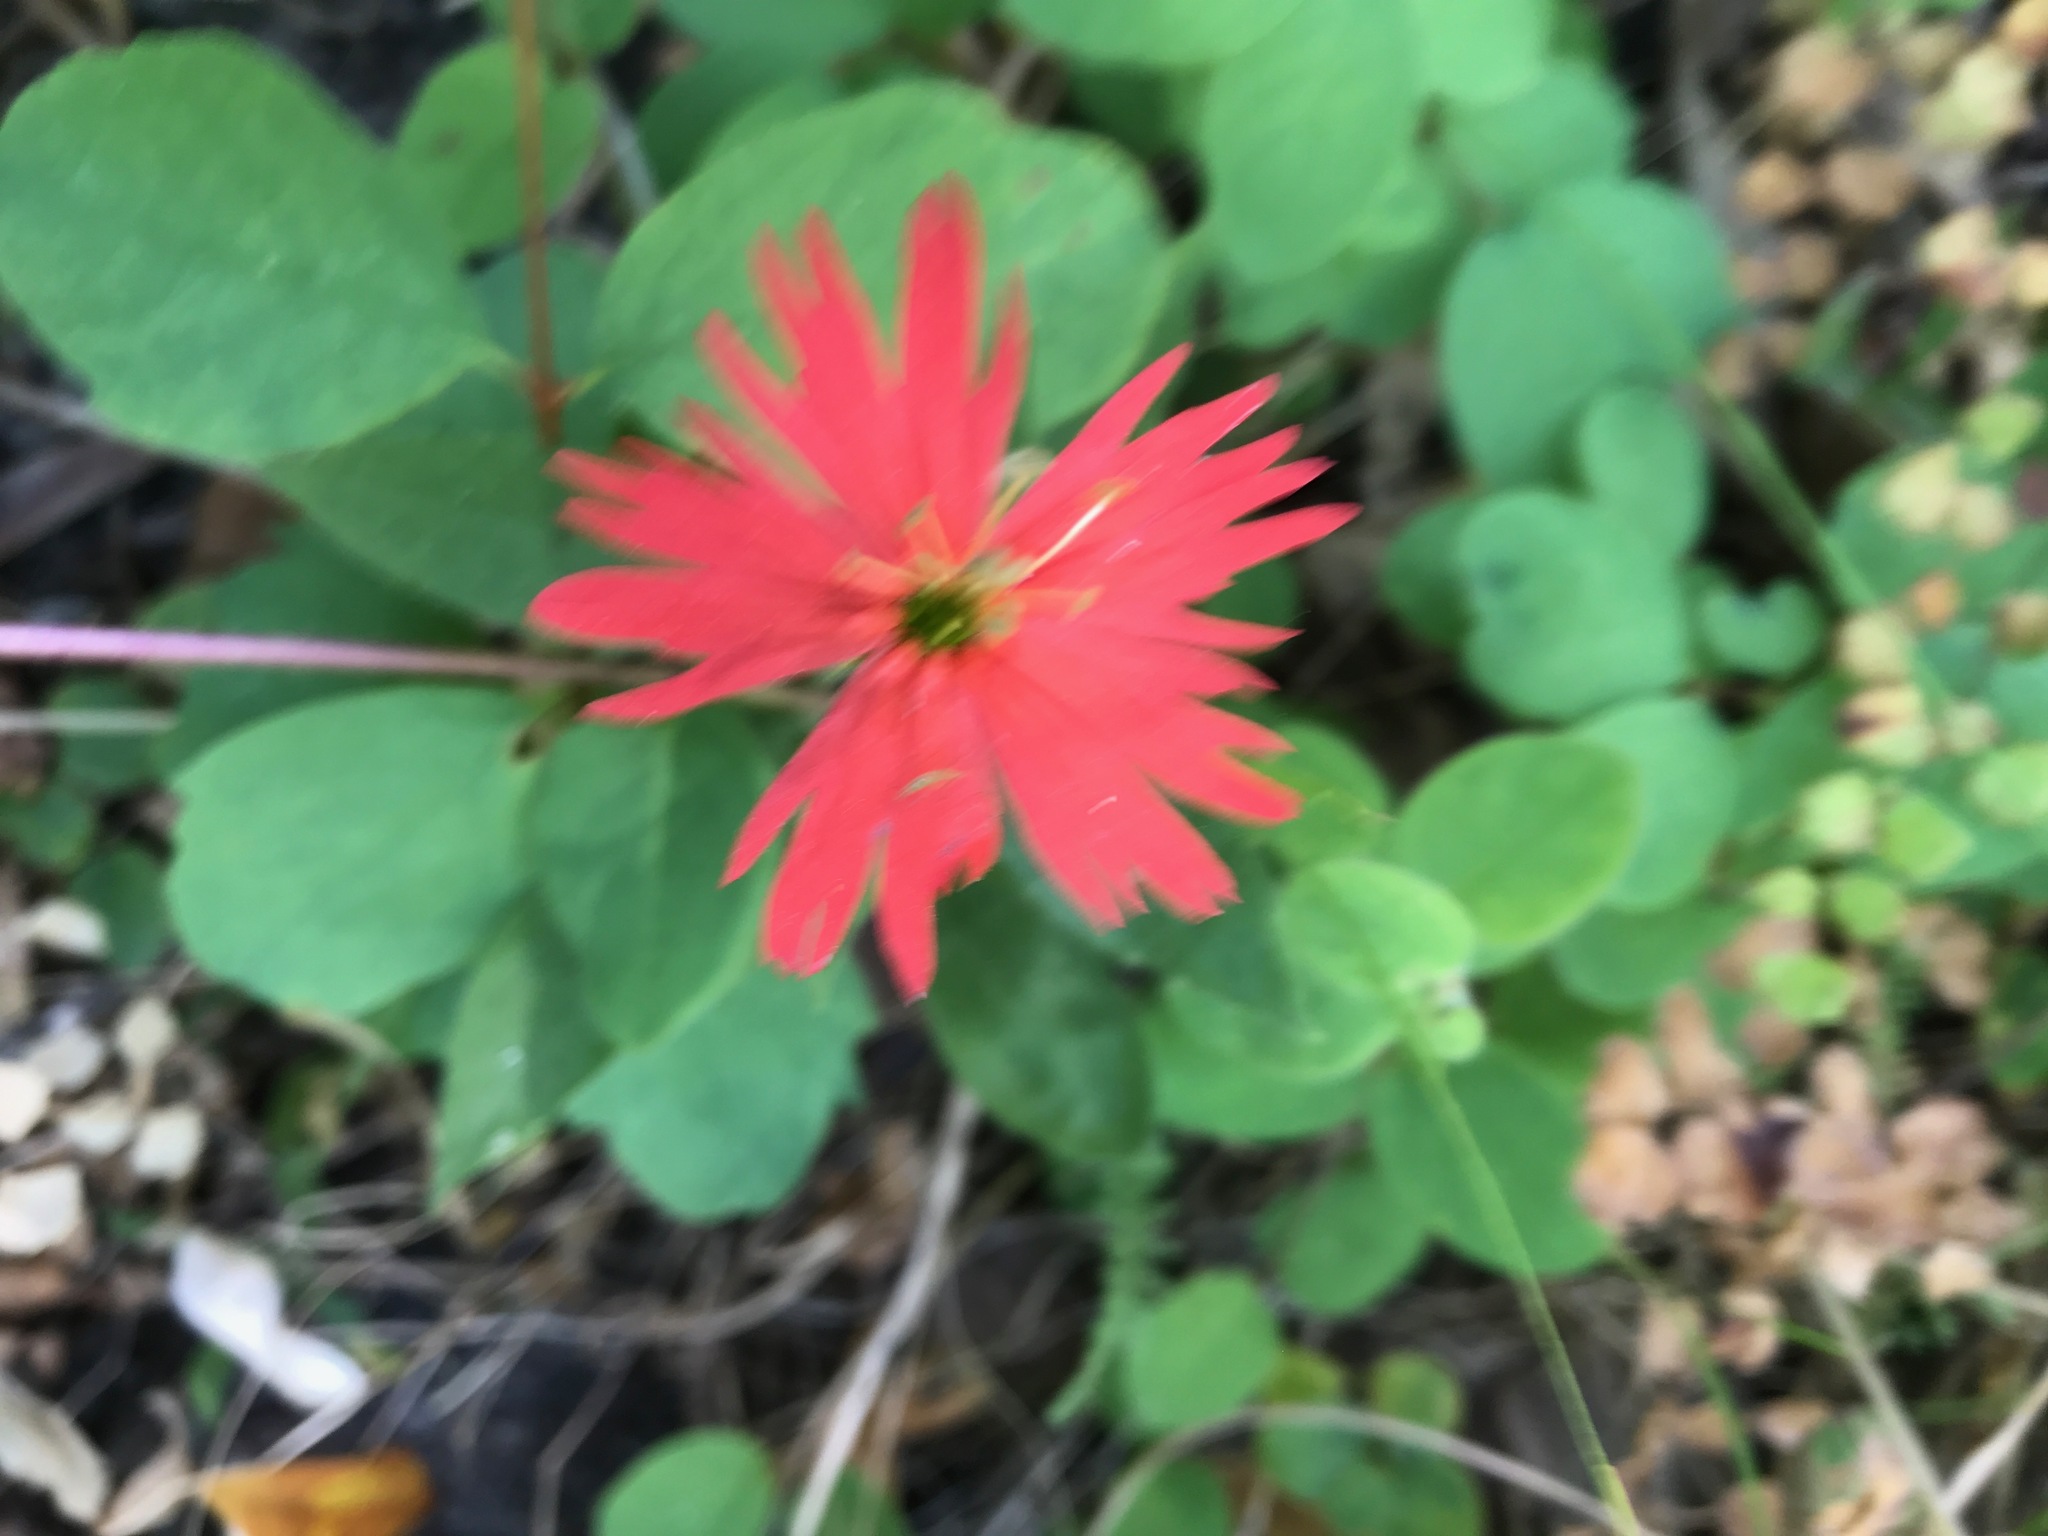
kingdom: Plantae
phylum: Tracheophyta
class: Magnoliopsida
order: Caryophyllales
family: Caryophyllaceae
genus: Silene
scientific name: Silene laciniata
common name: Indian-pink
